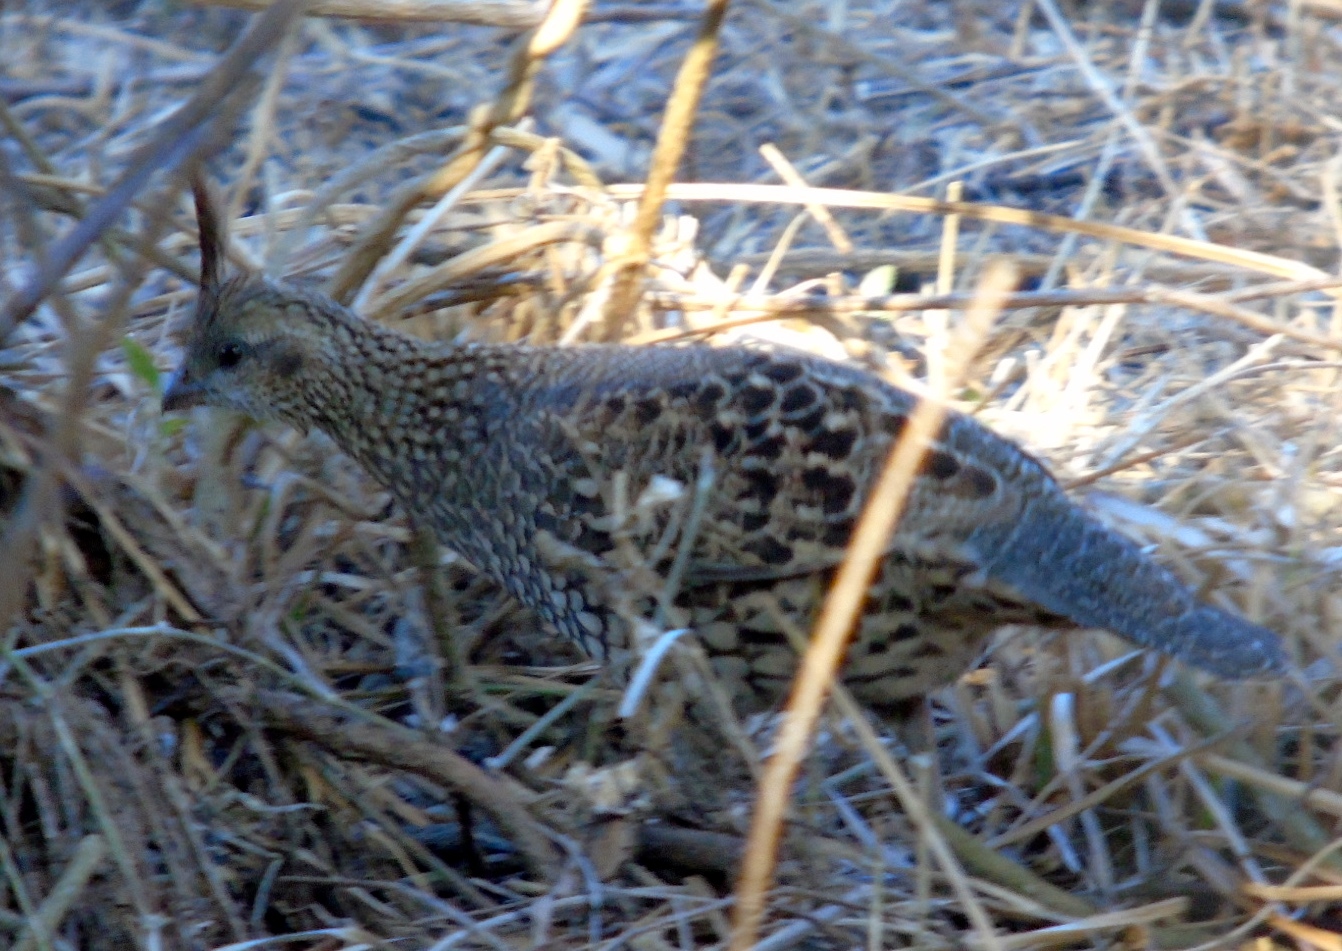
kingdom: Animalia
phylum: Chordata
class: Aves
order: Galliformes
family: Odontophoridae
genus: Callipepla
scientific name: Callipepla douglasii
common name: Elegant quail
